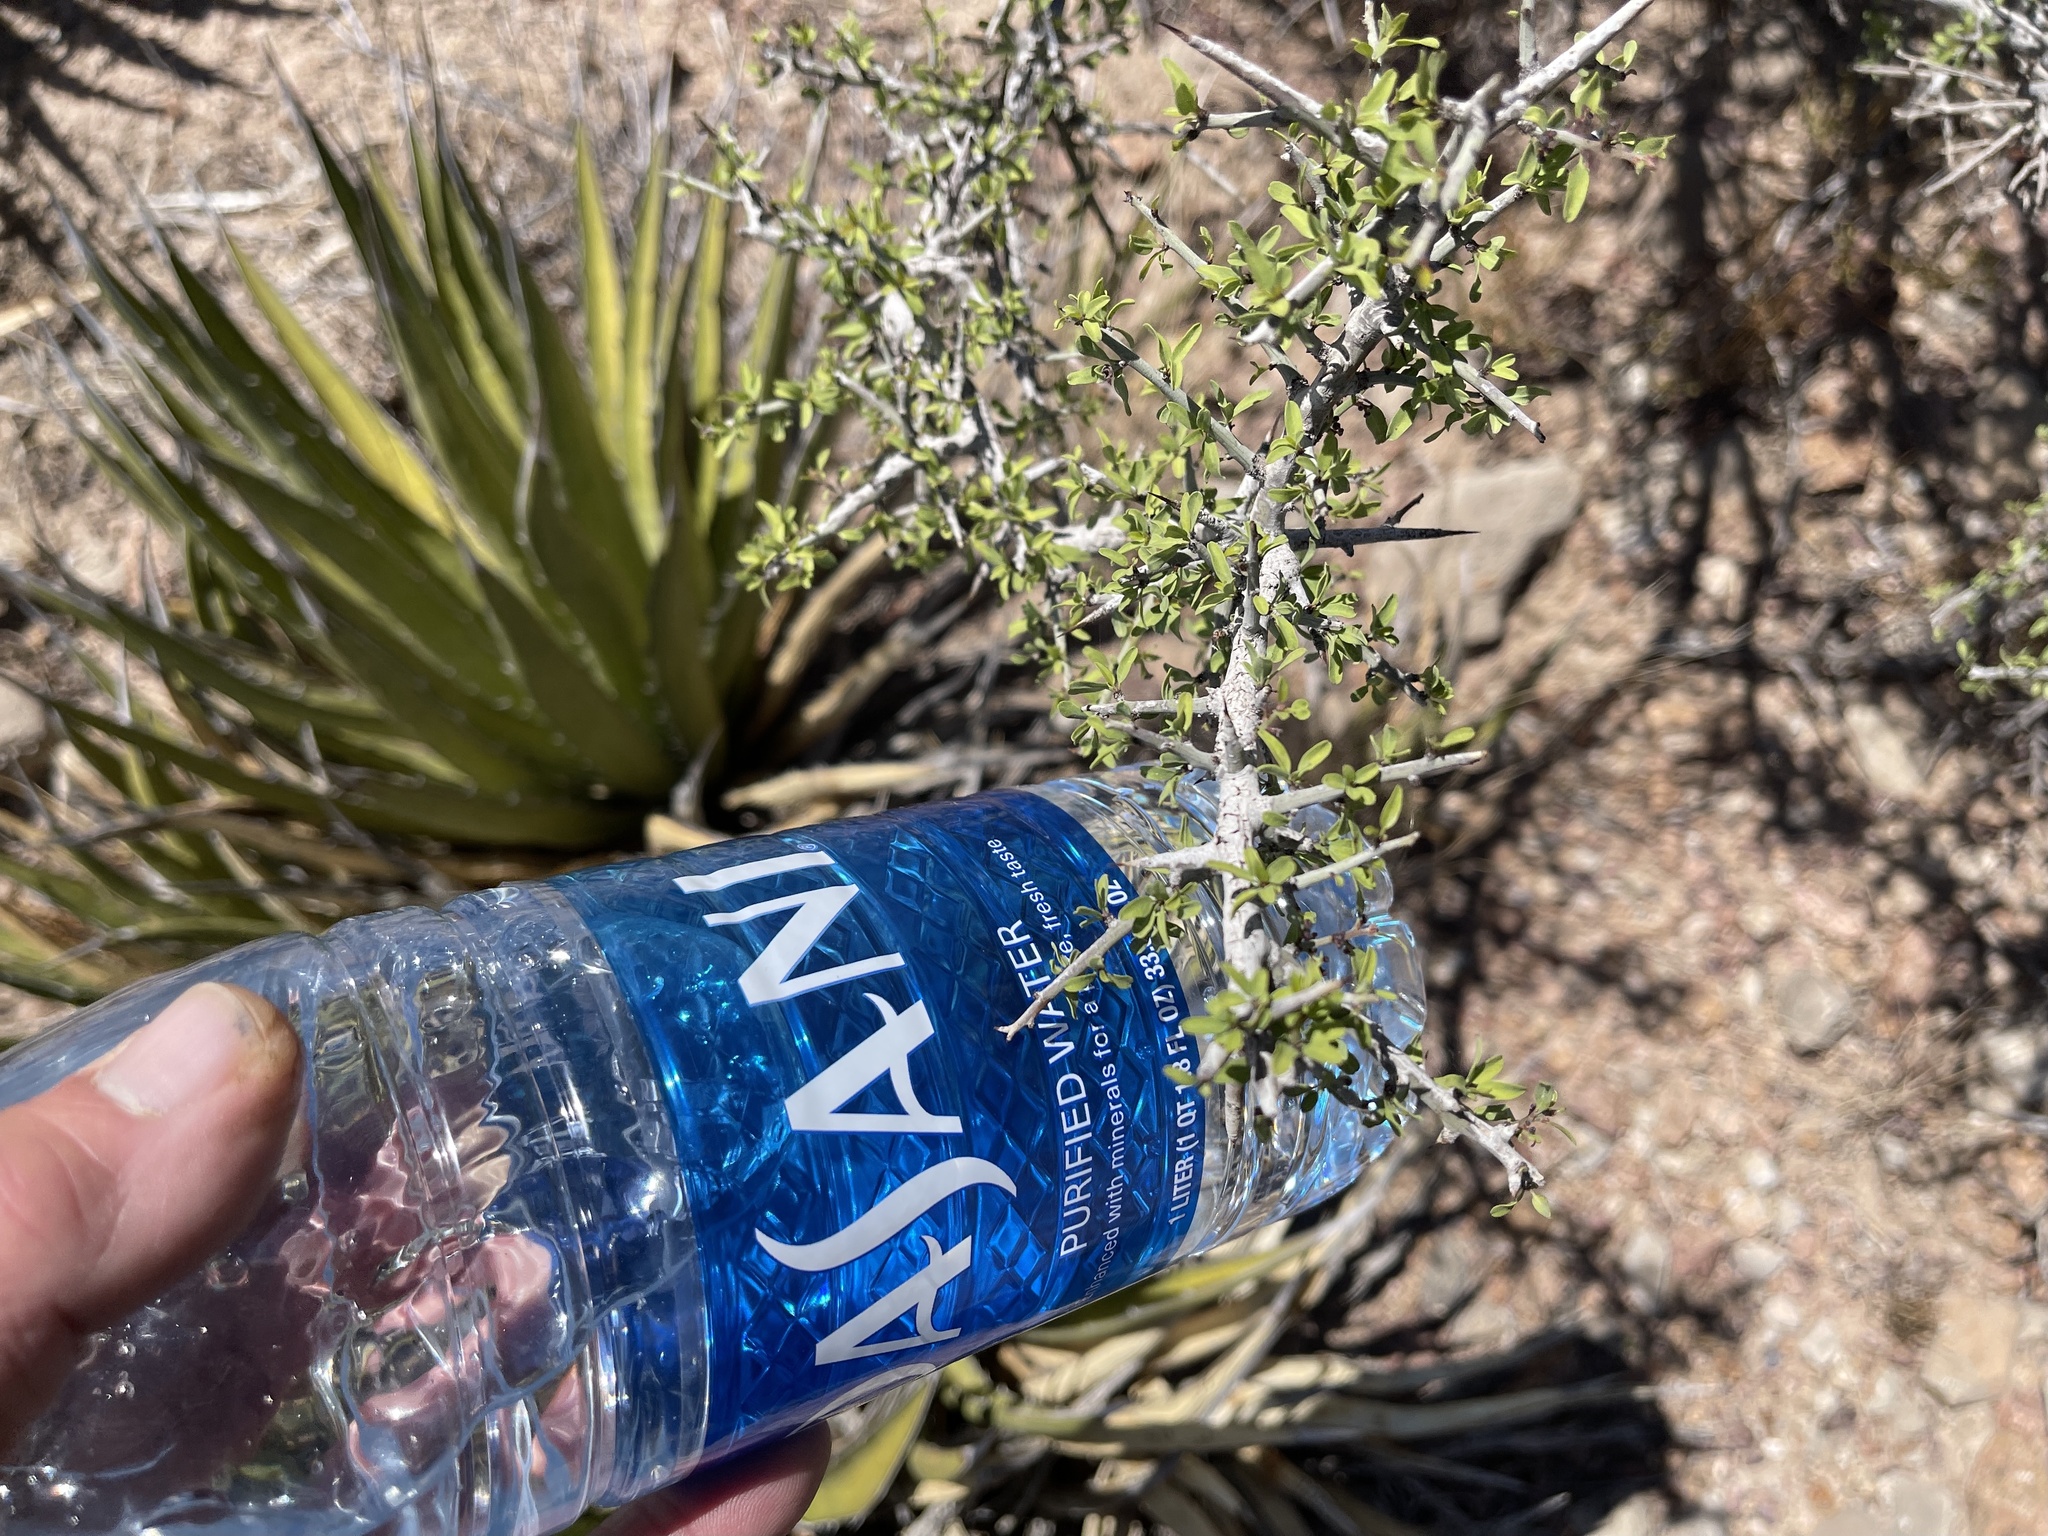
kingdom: Plantae
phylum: Tracheophyta
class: Magnoliopsida
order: Rosales
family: Rhamnaceae
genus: Sarcomphalus
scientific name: Sarcomphalus obtusifolius
